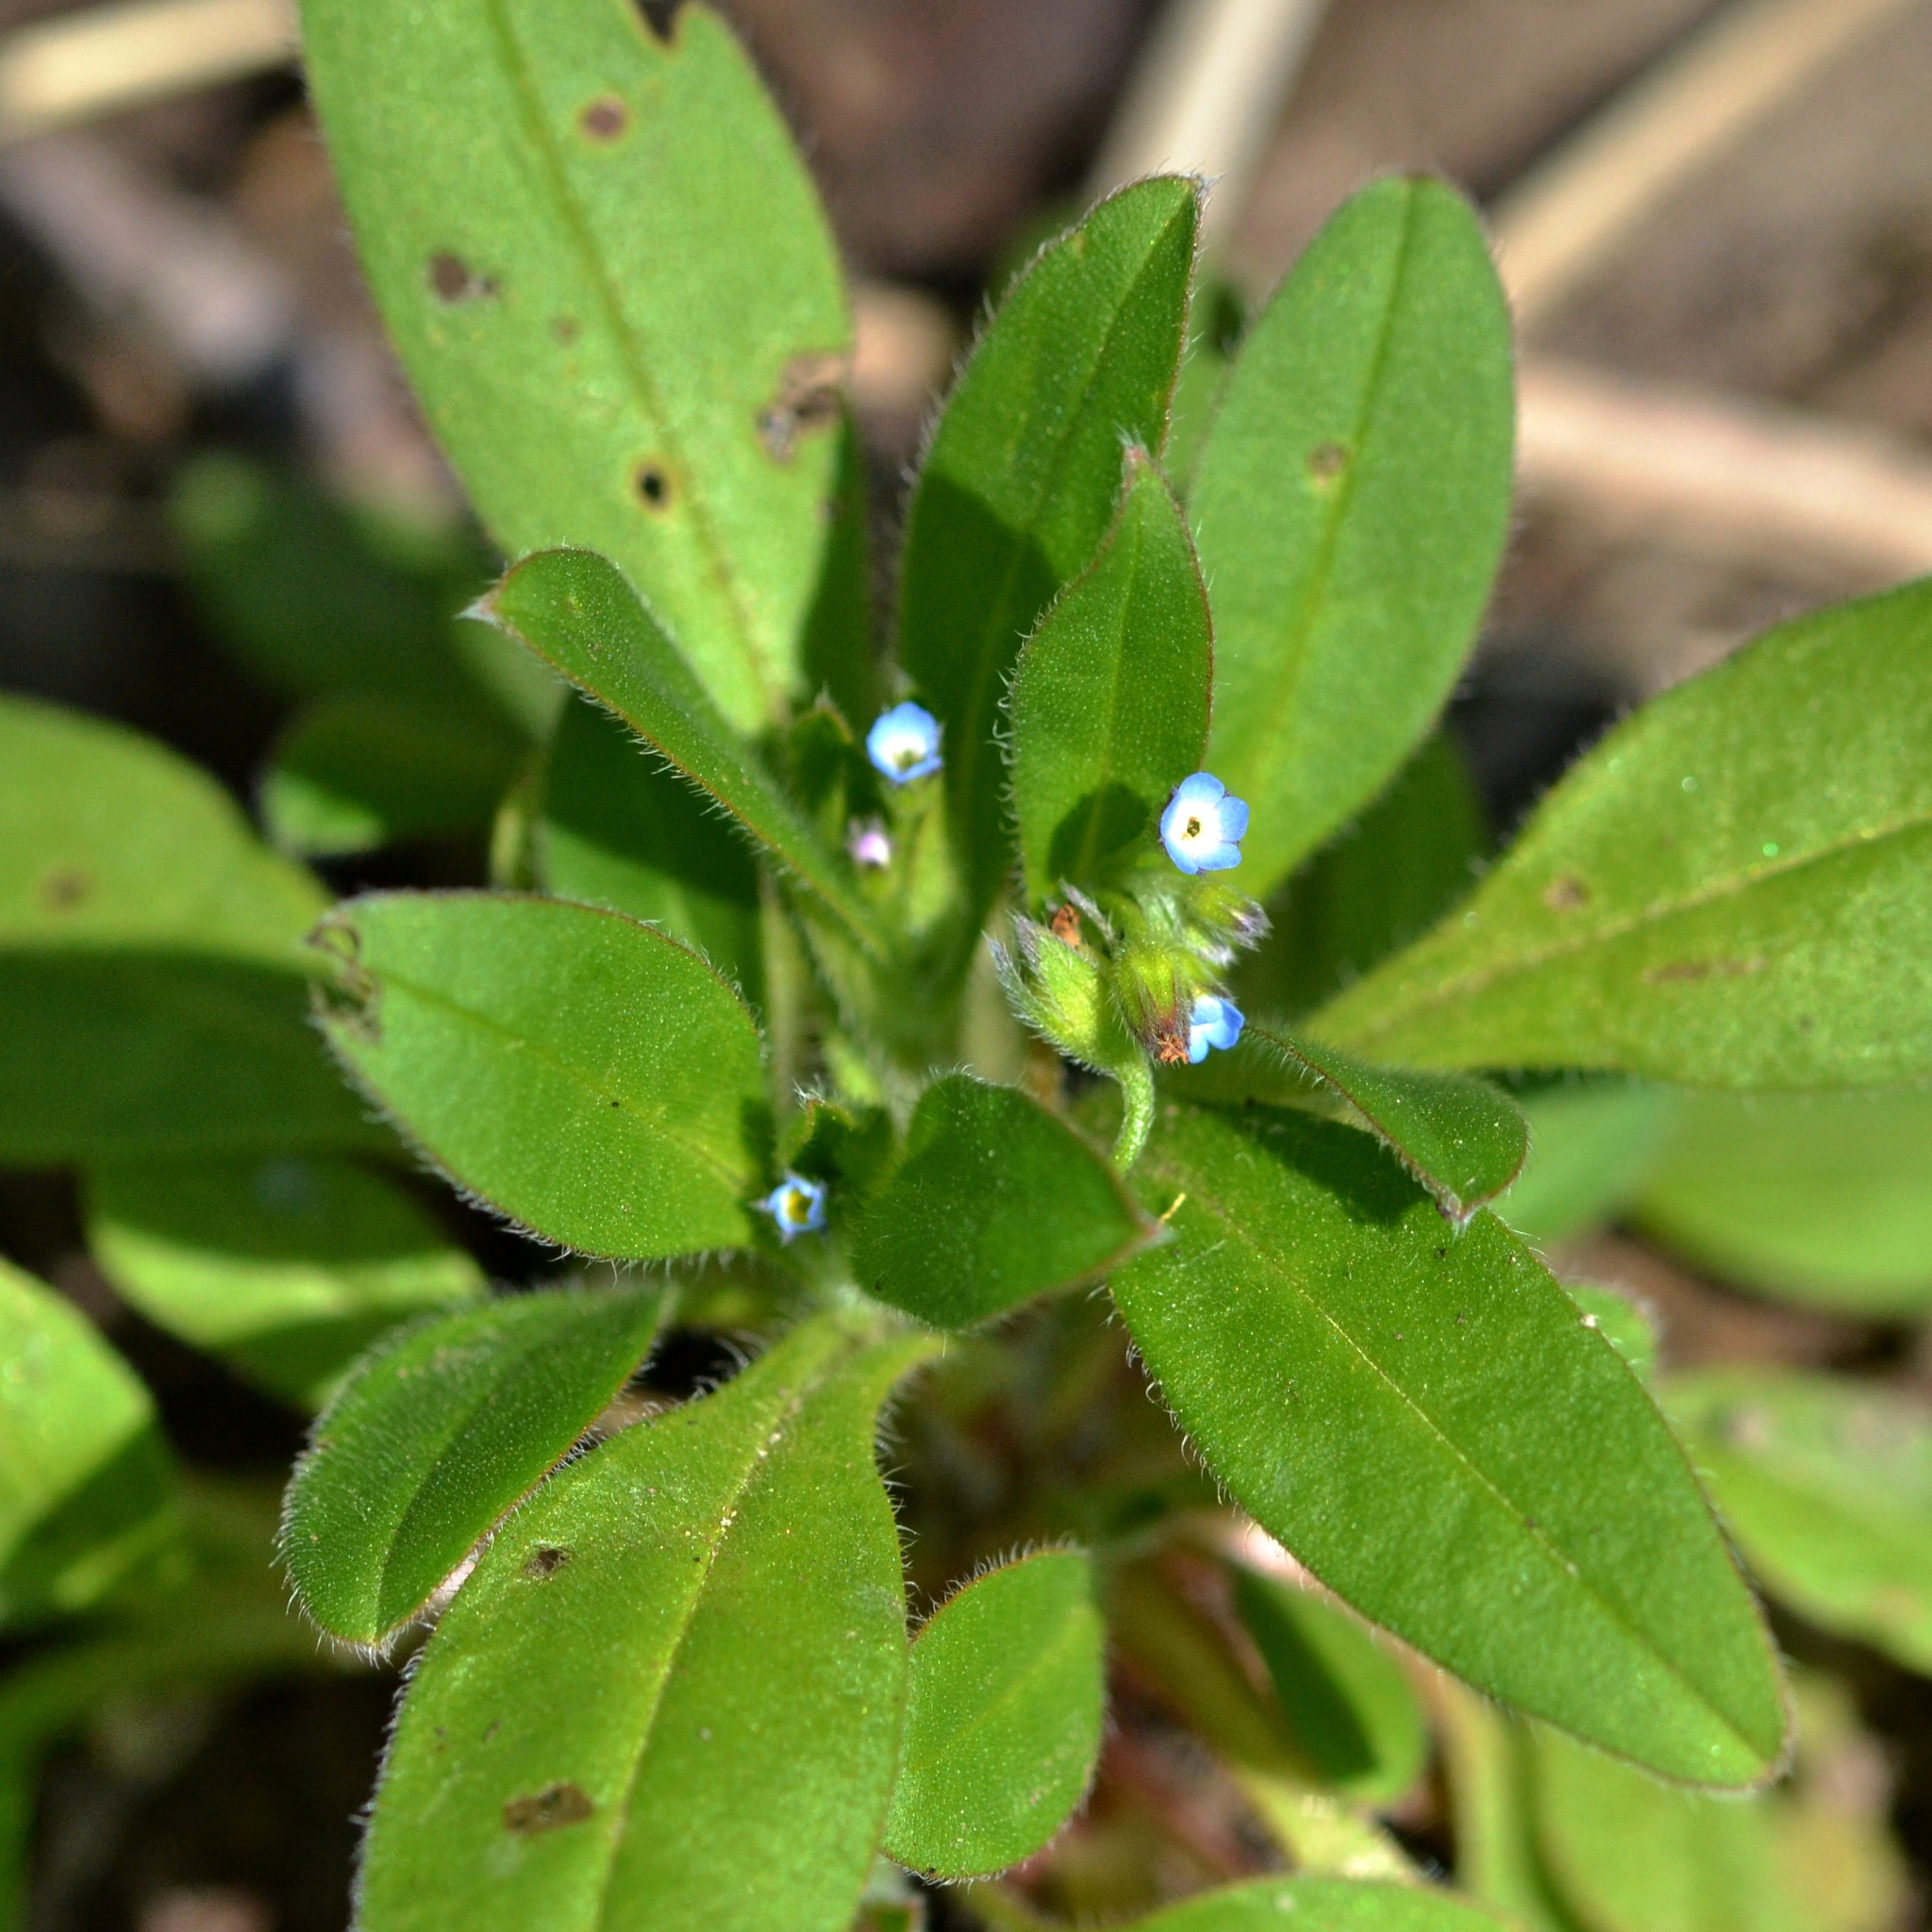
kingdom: Plantae
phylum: Tracheophyta
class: Magnoliopsida
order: Boraginales
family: Boraginaceae
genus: Myosotis
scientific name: Myosotis sparsiflora
